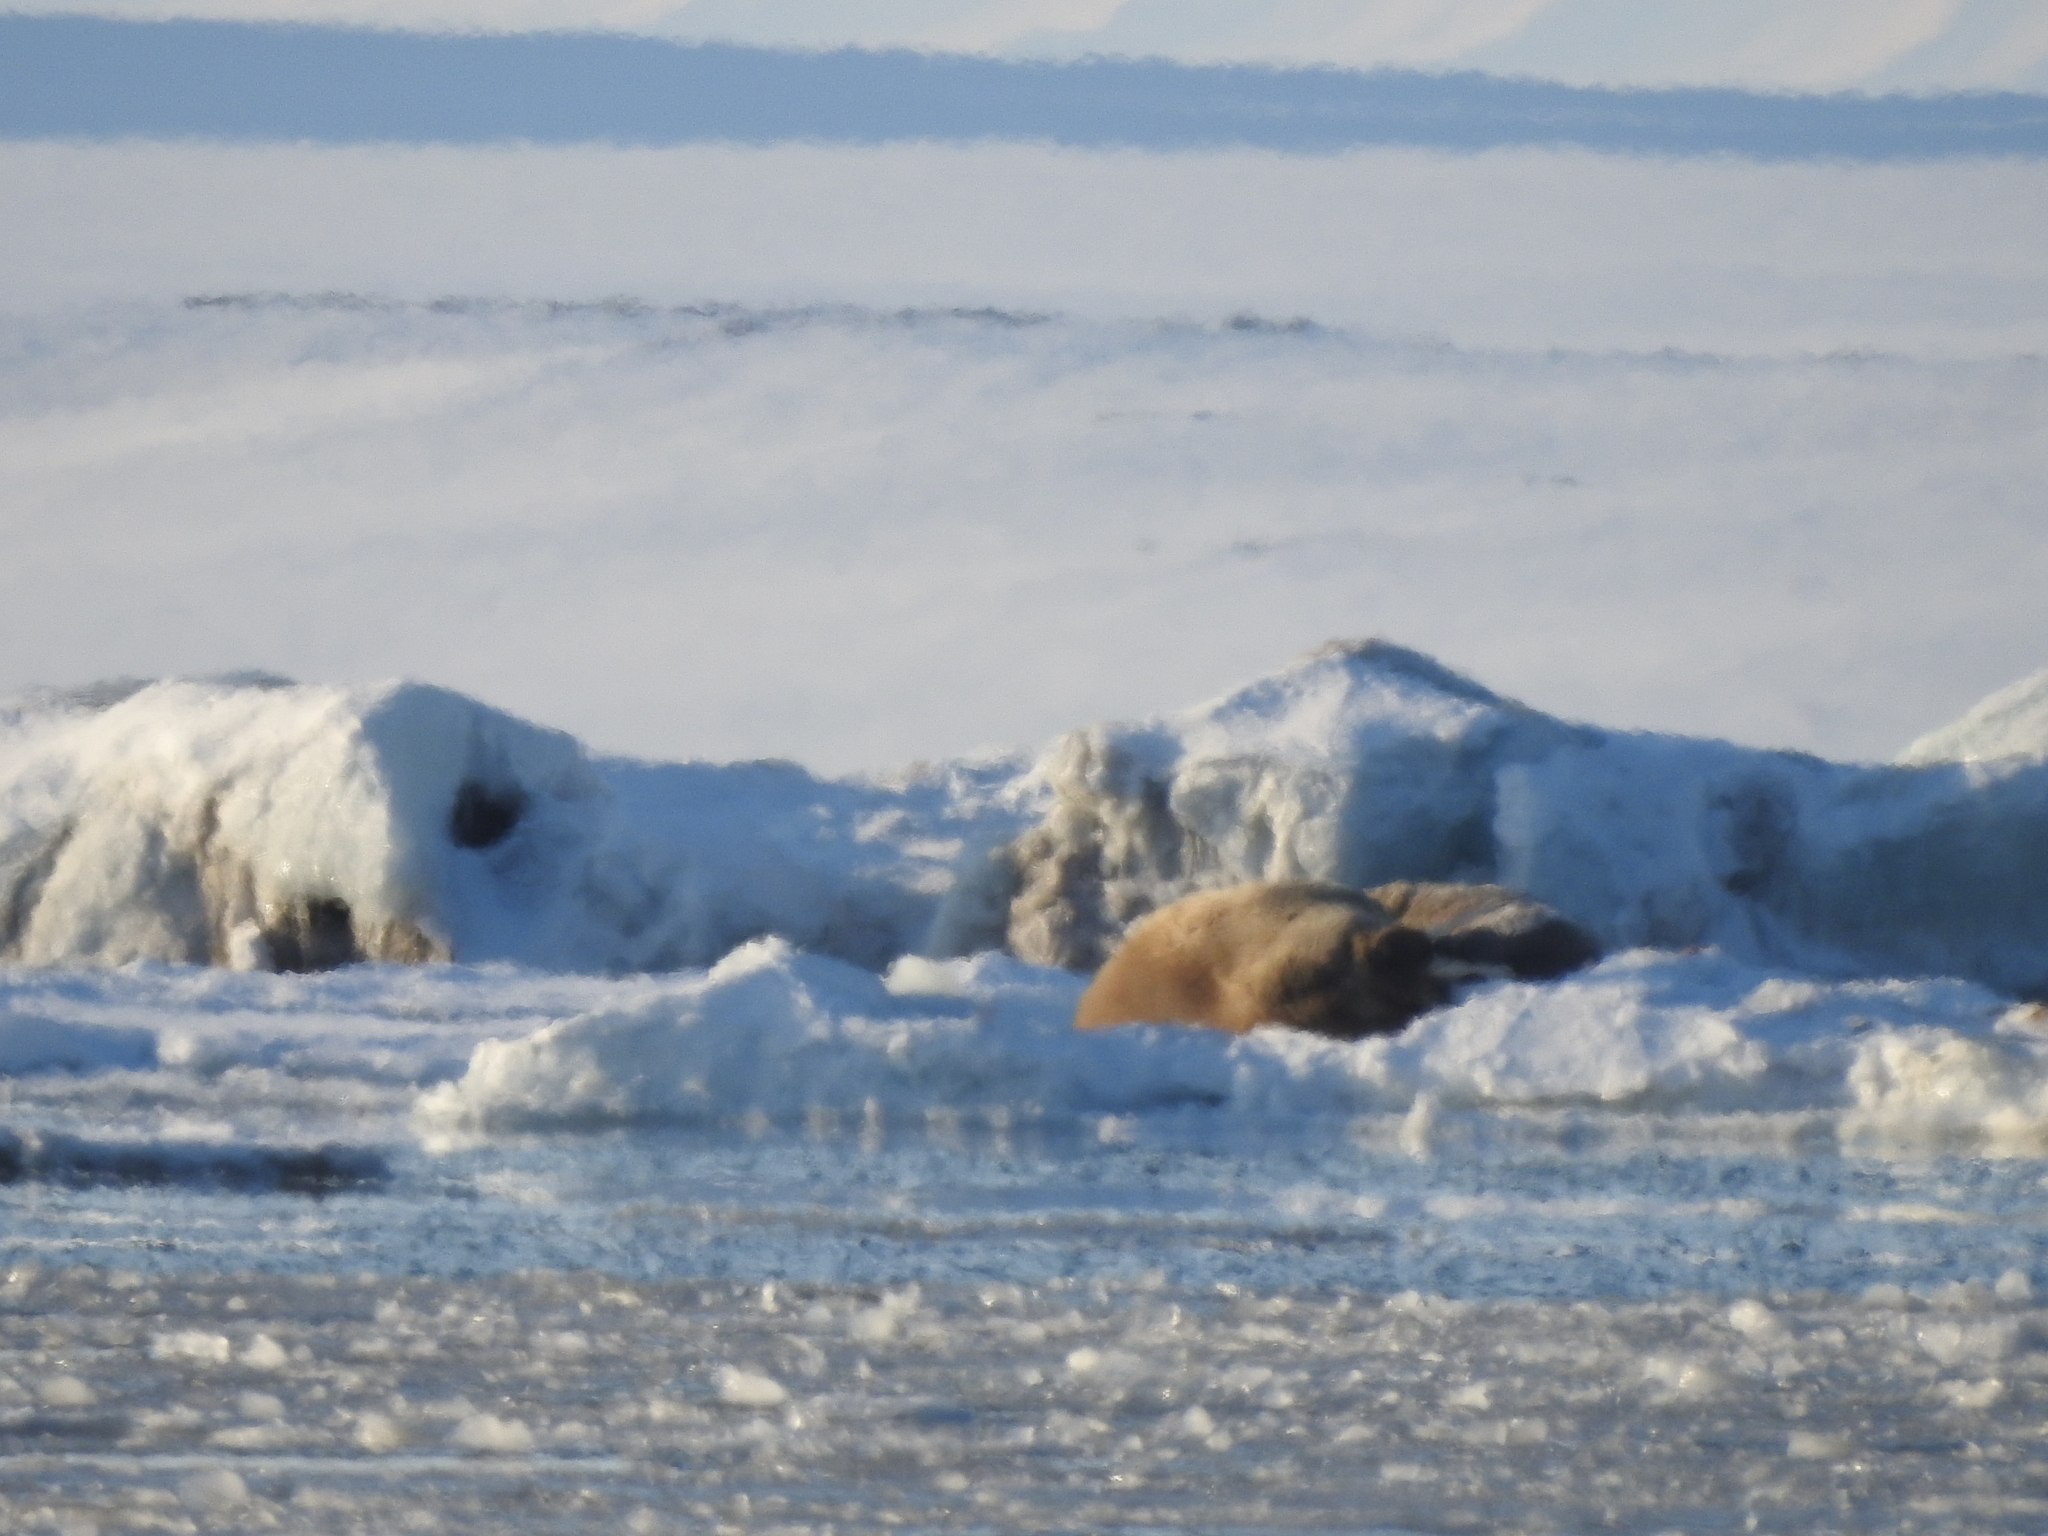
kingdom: Animalia
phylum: Chordata
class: Mammalia
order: Carnivora
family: Odobenidae
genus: Odobenus
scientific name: Odobenus rosmarus
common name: Walrus
